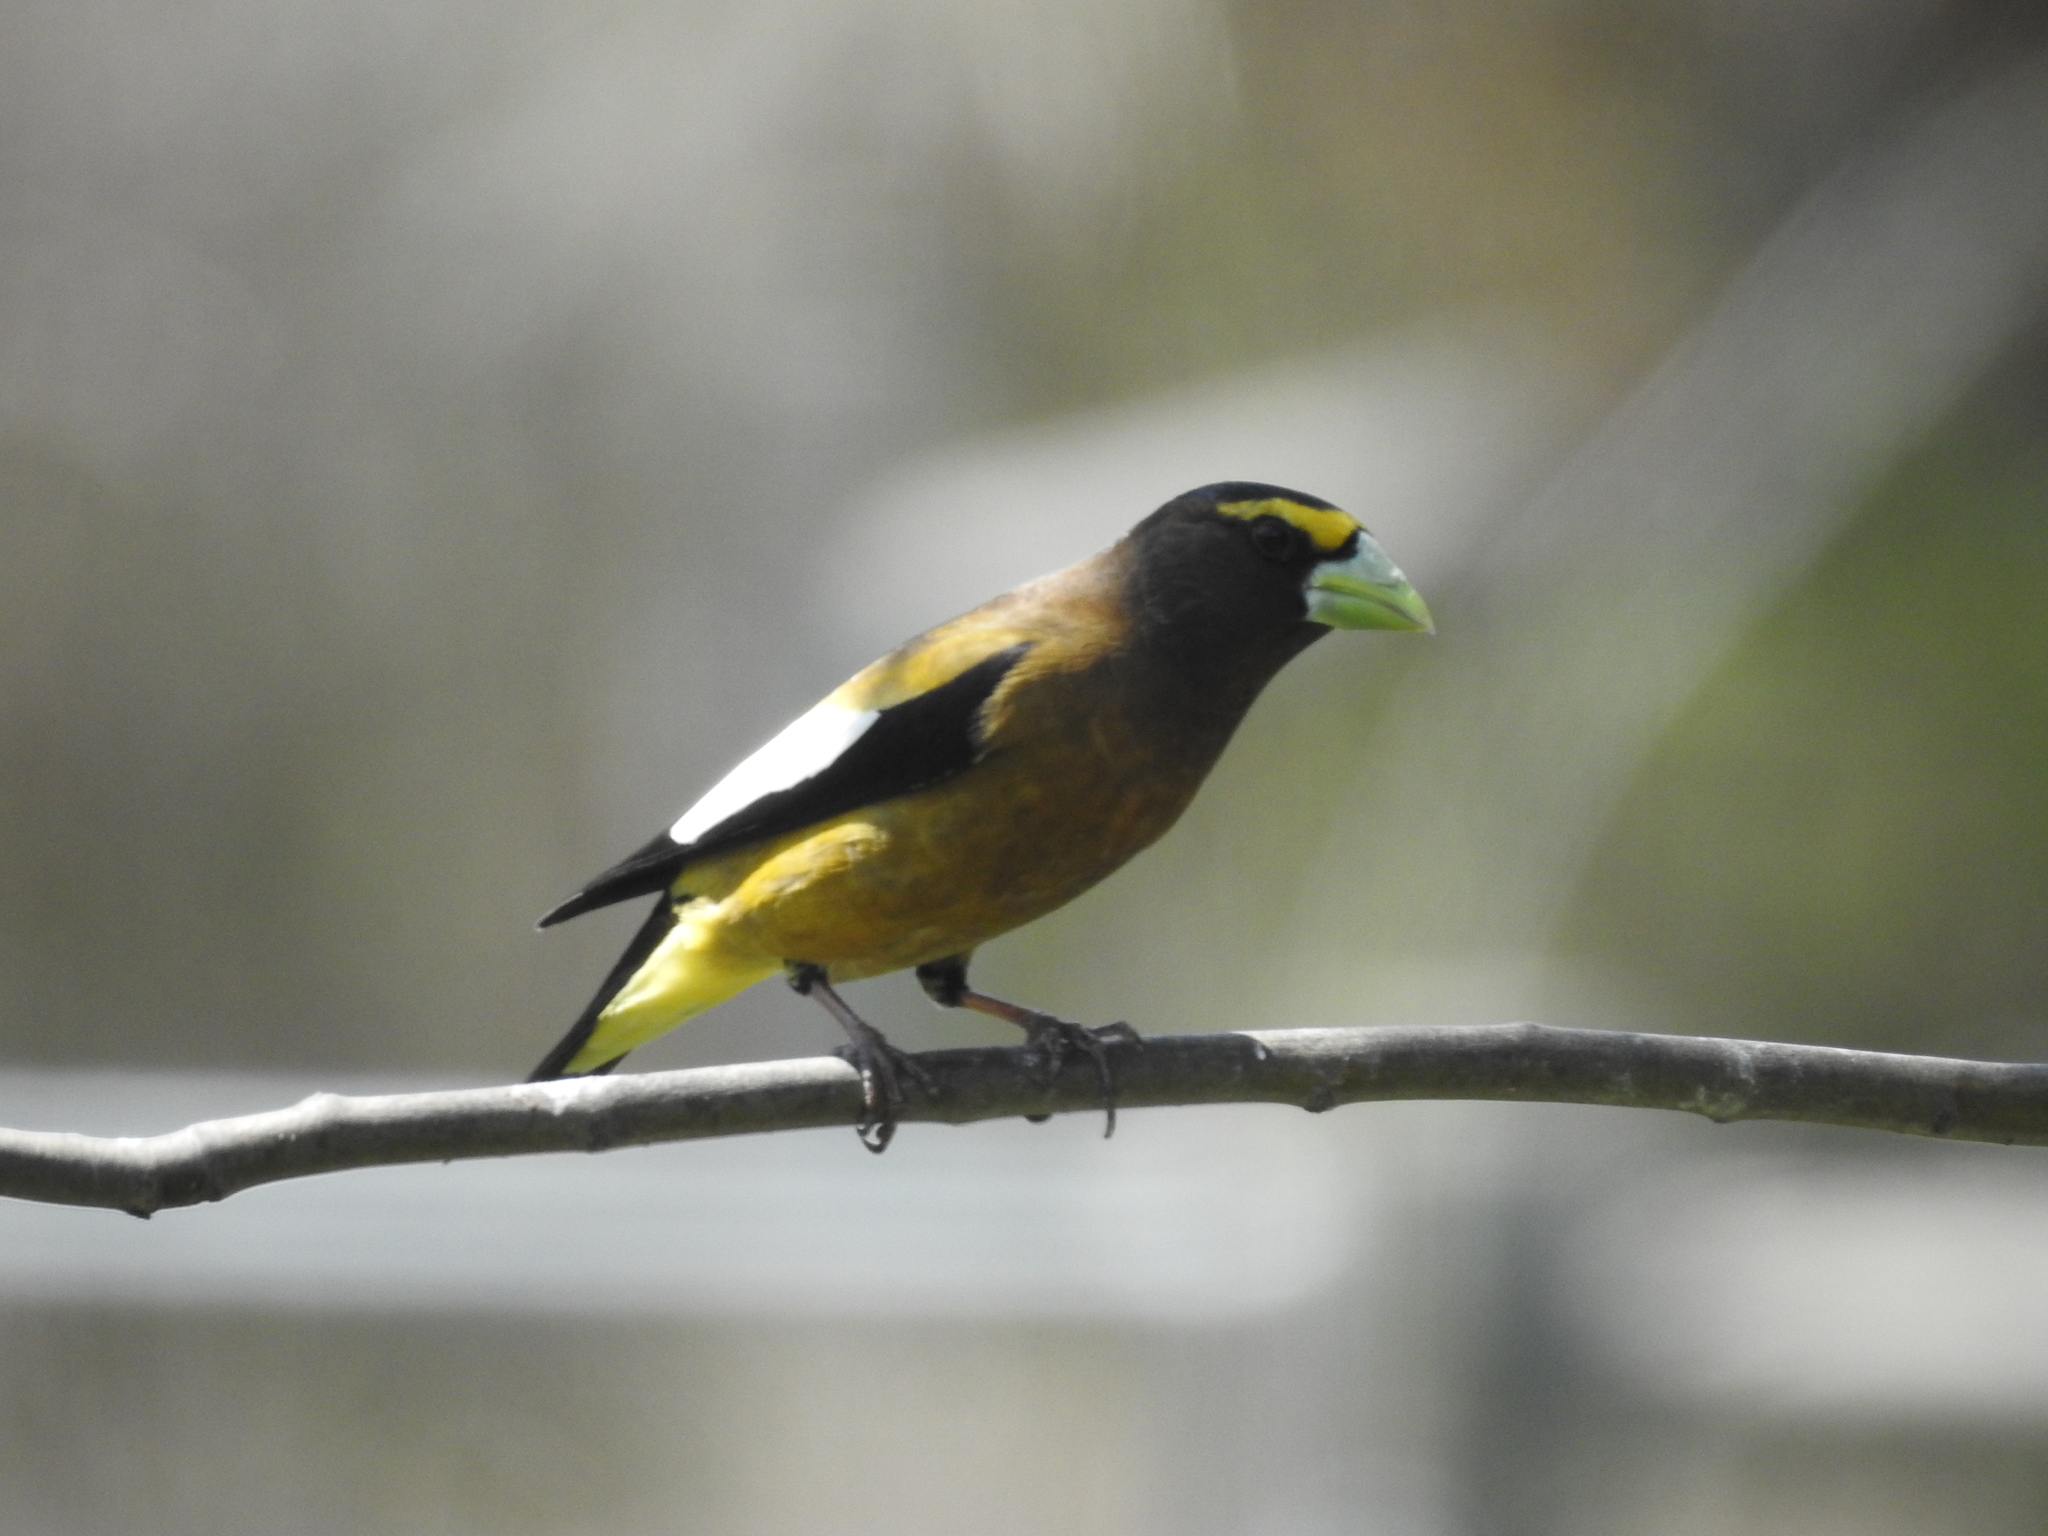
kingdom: Animalia
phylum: Chordata
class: Aves
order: Passeriformes
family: Fringillidae
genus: Hesperiphona
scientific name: Hesperiphona vespertina
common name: Evening grosbeak
